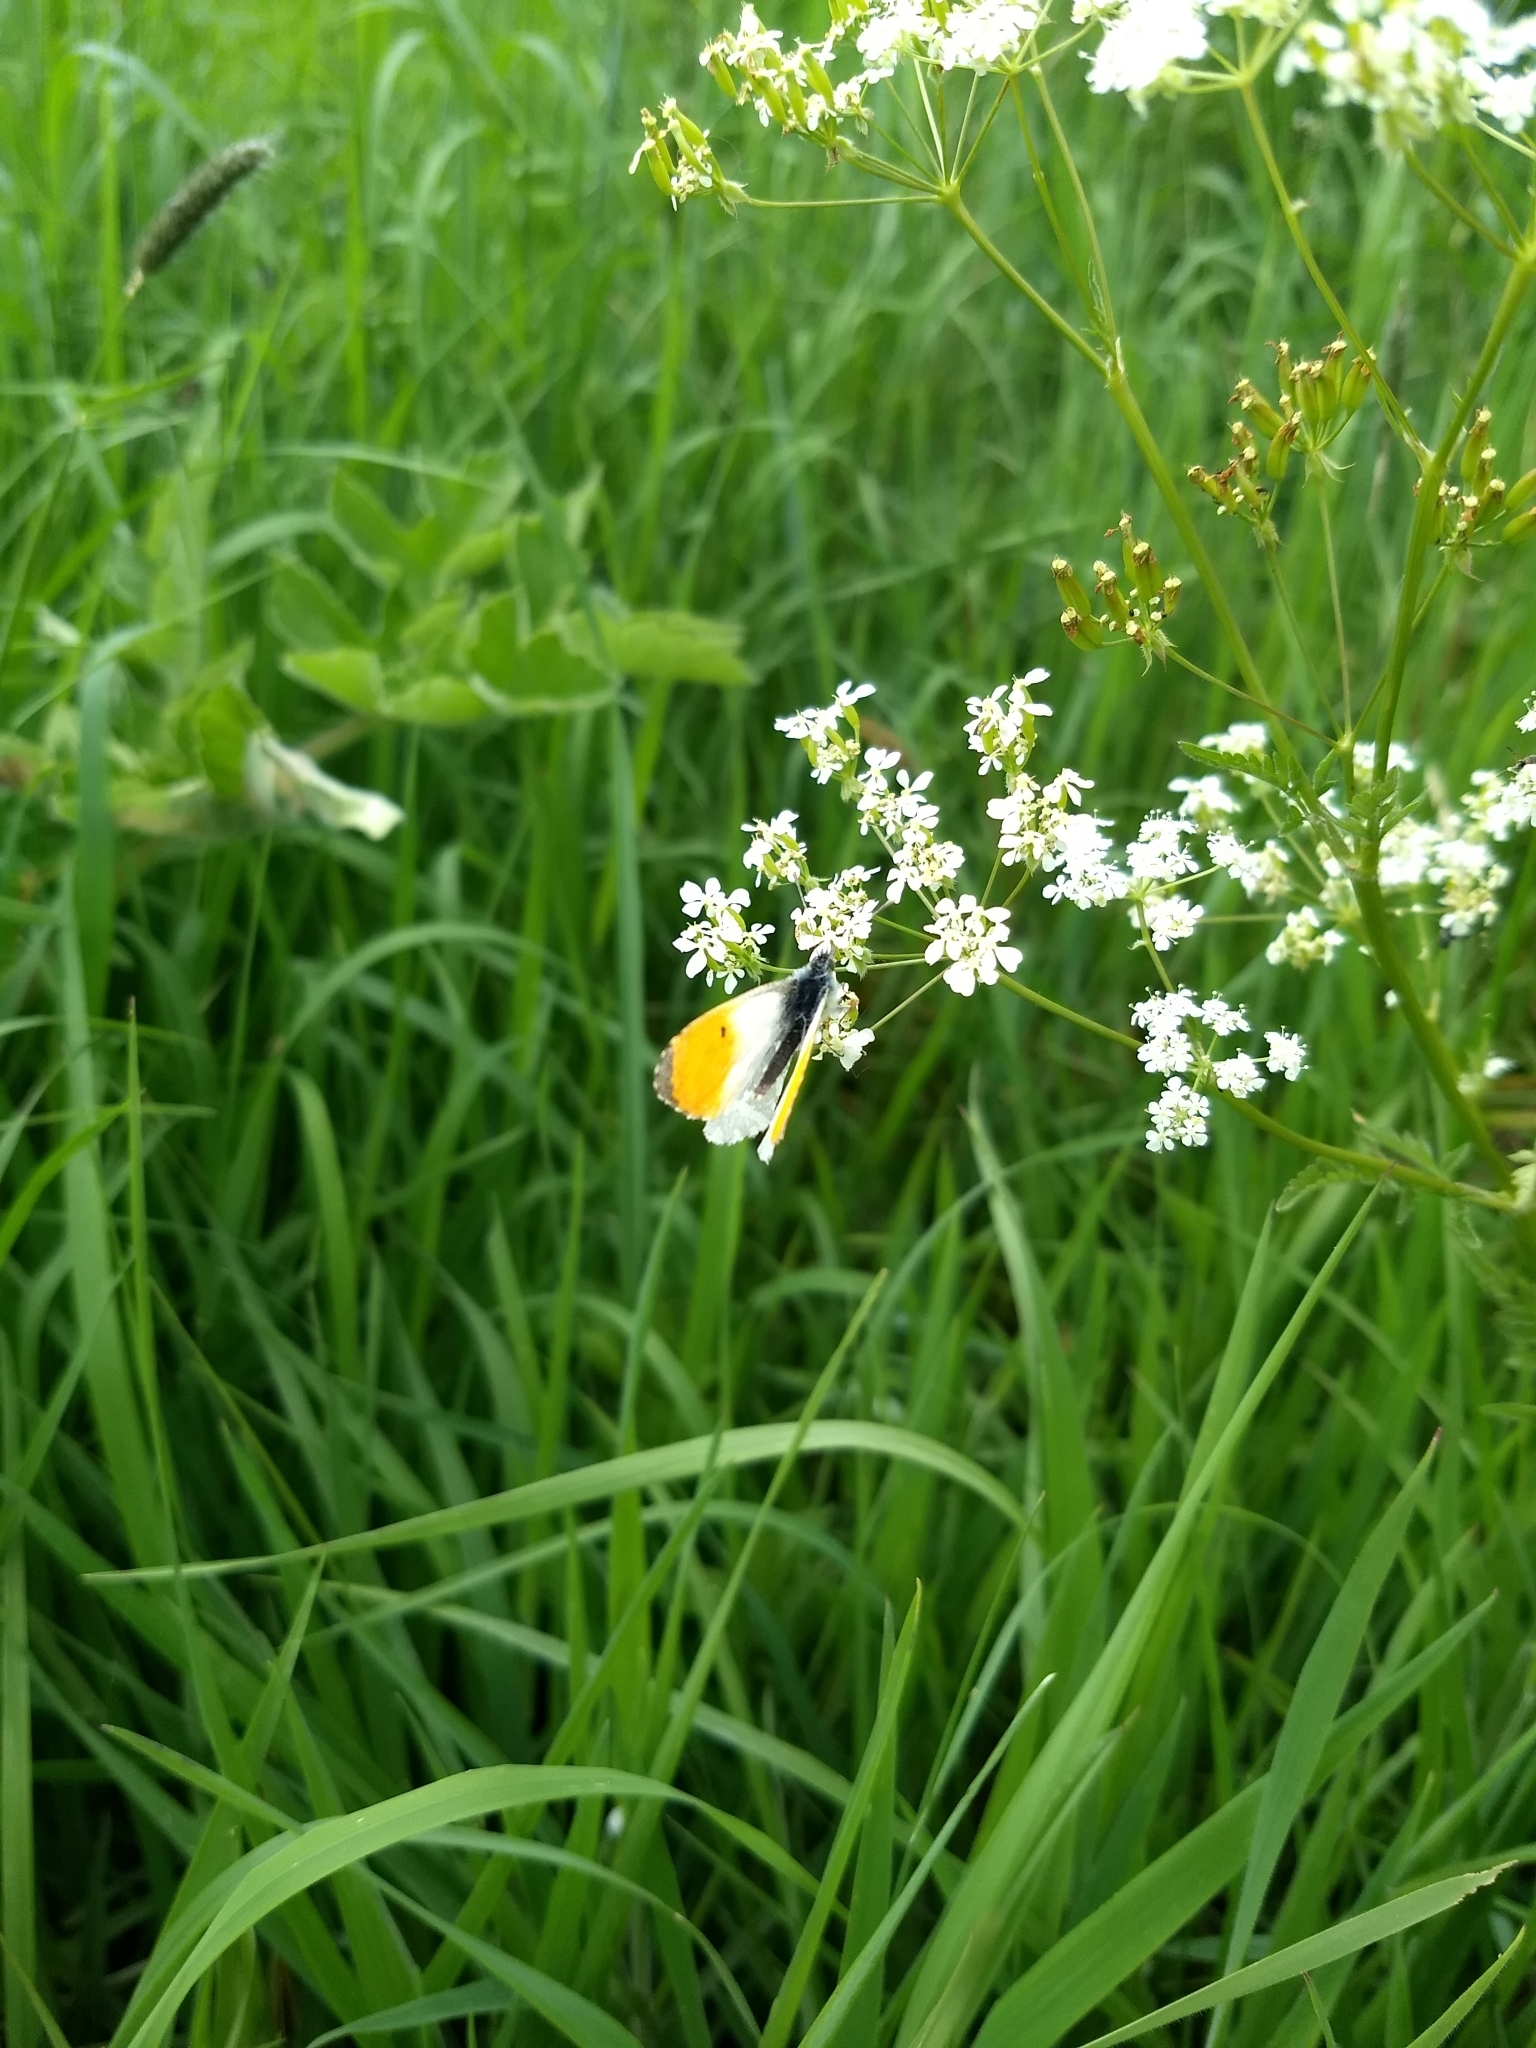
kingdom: Animalia
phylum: Arthropoda
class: Insecta
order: Lepidoptera
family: Pieridae
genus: Anthocharis
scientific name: Anthocharis cardamines
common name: Orange-tip
